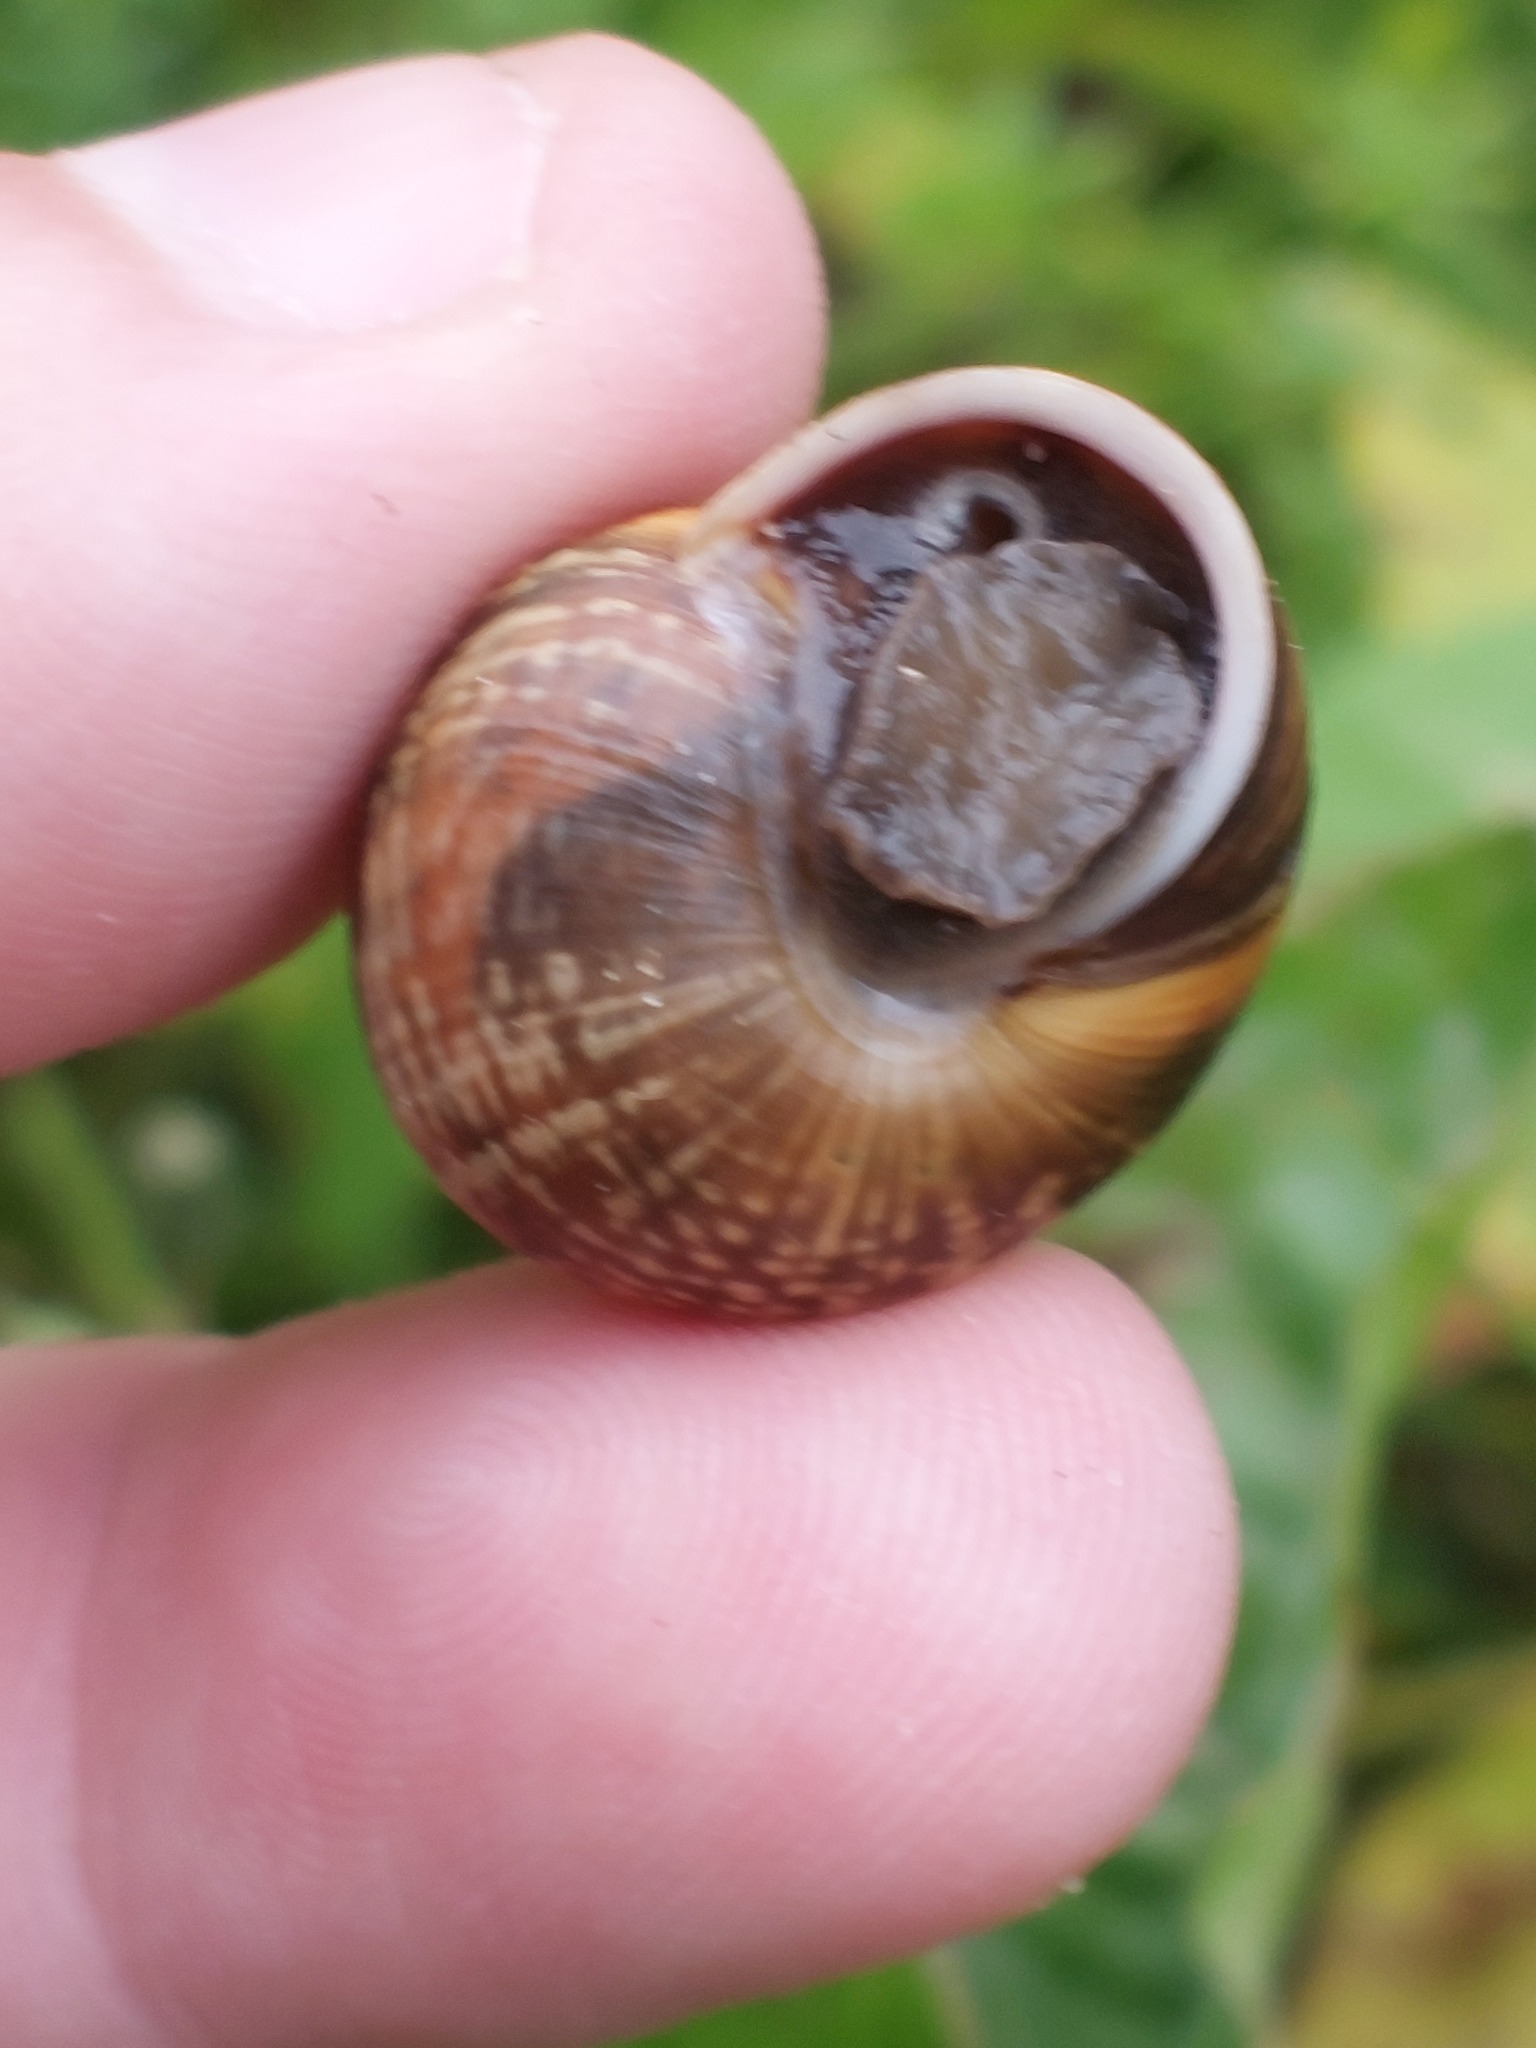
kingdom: Animalia
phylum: Mollusca
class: Gastropoda
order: Stylommatophora
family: Helicidae
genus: Arianta
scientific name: Arianta arbustorum
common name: Copse snail
